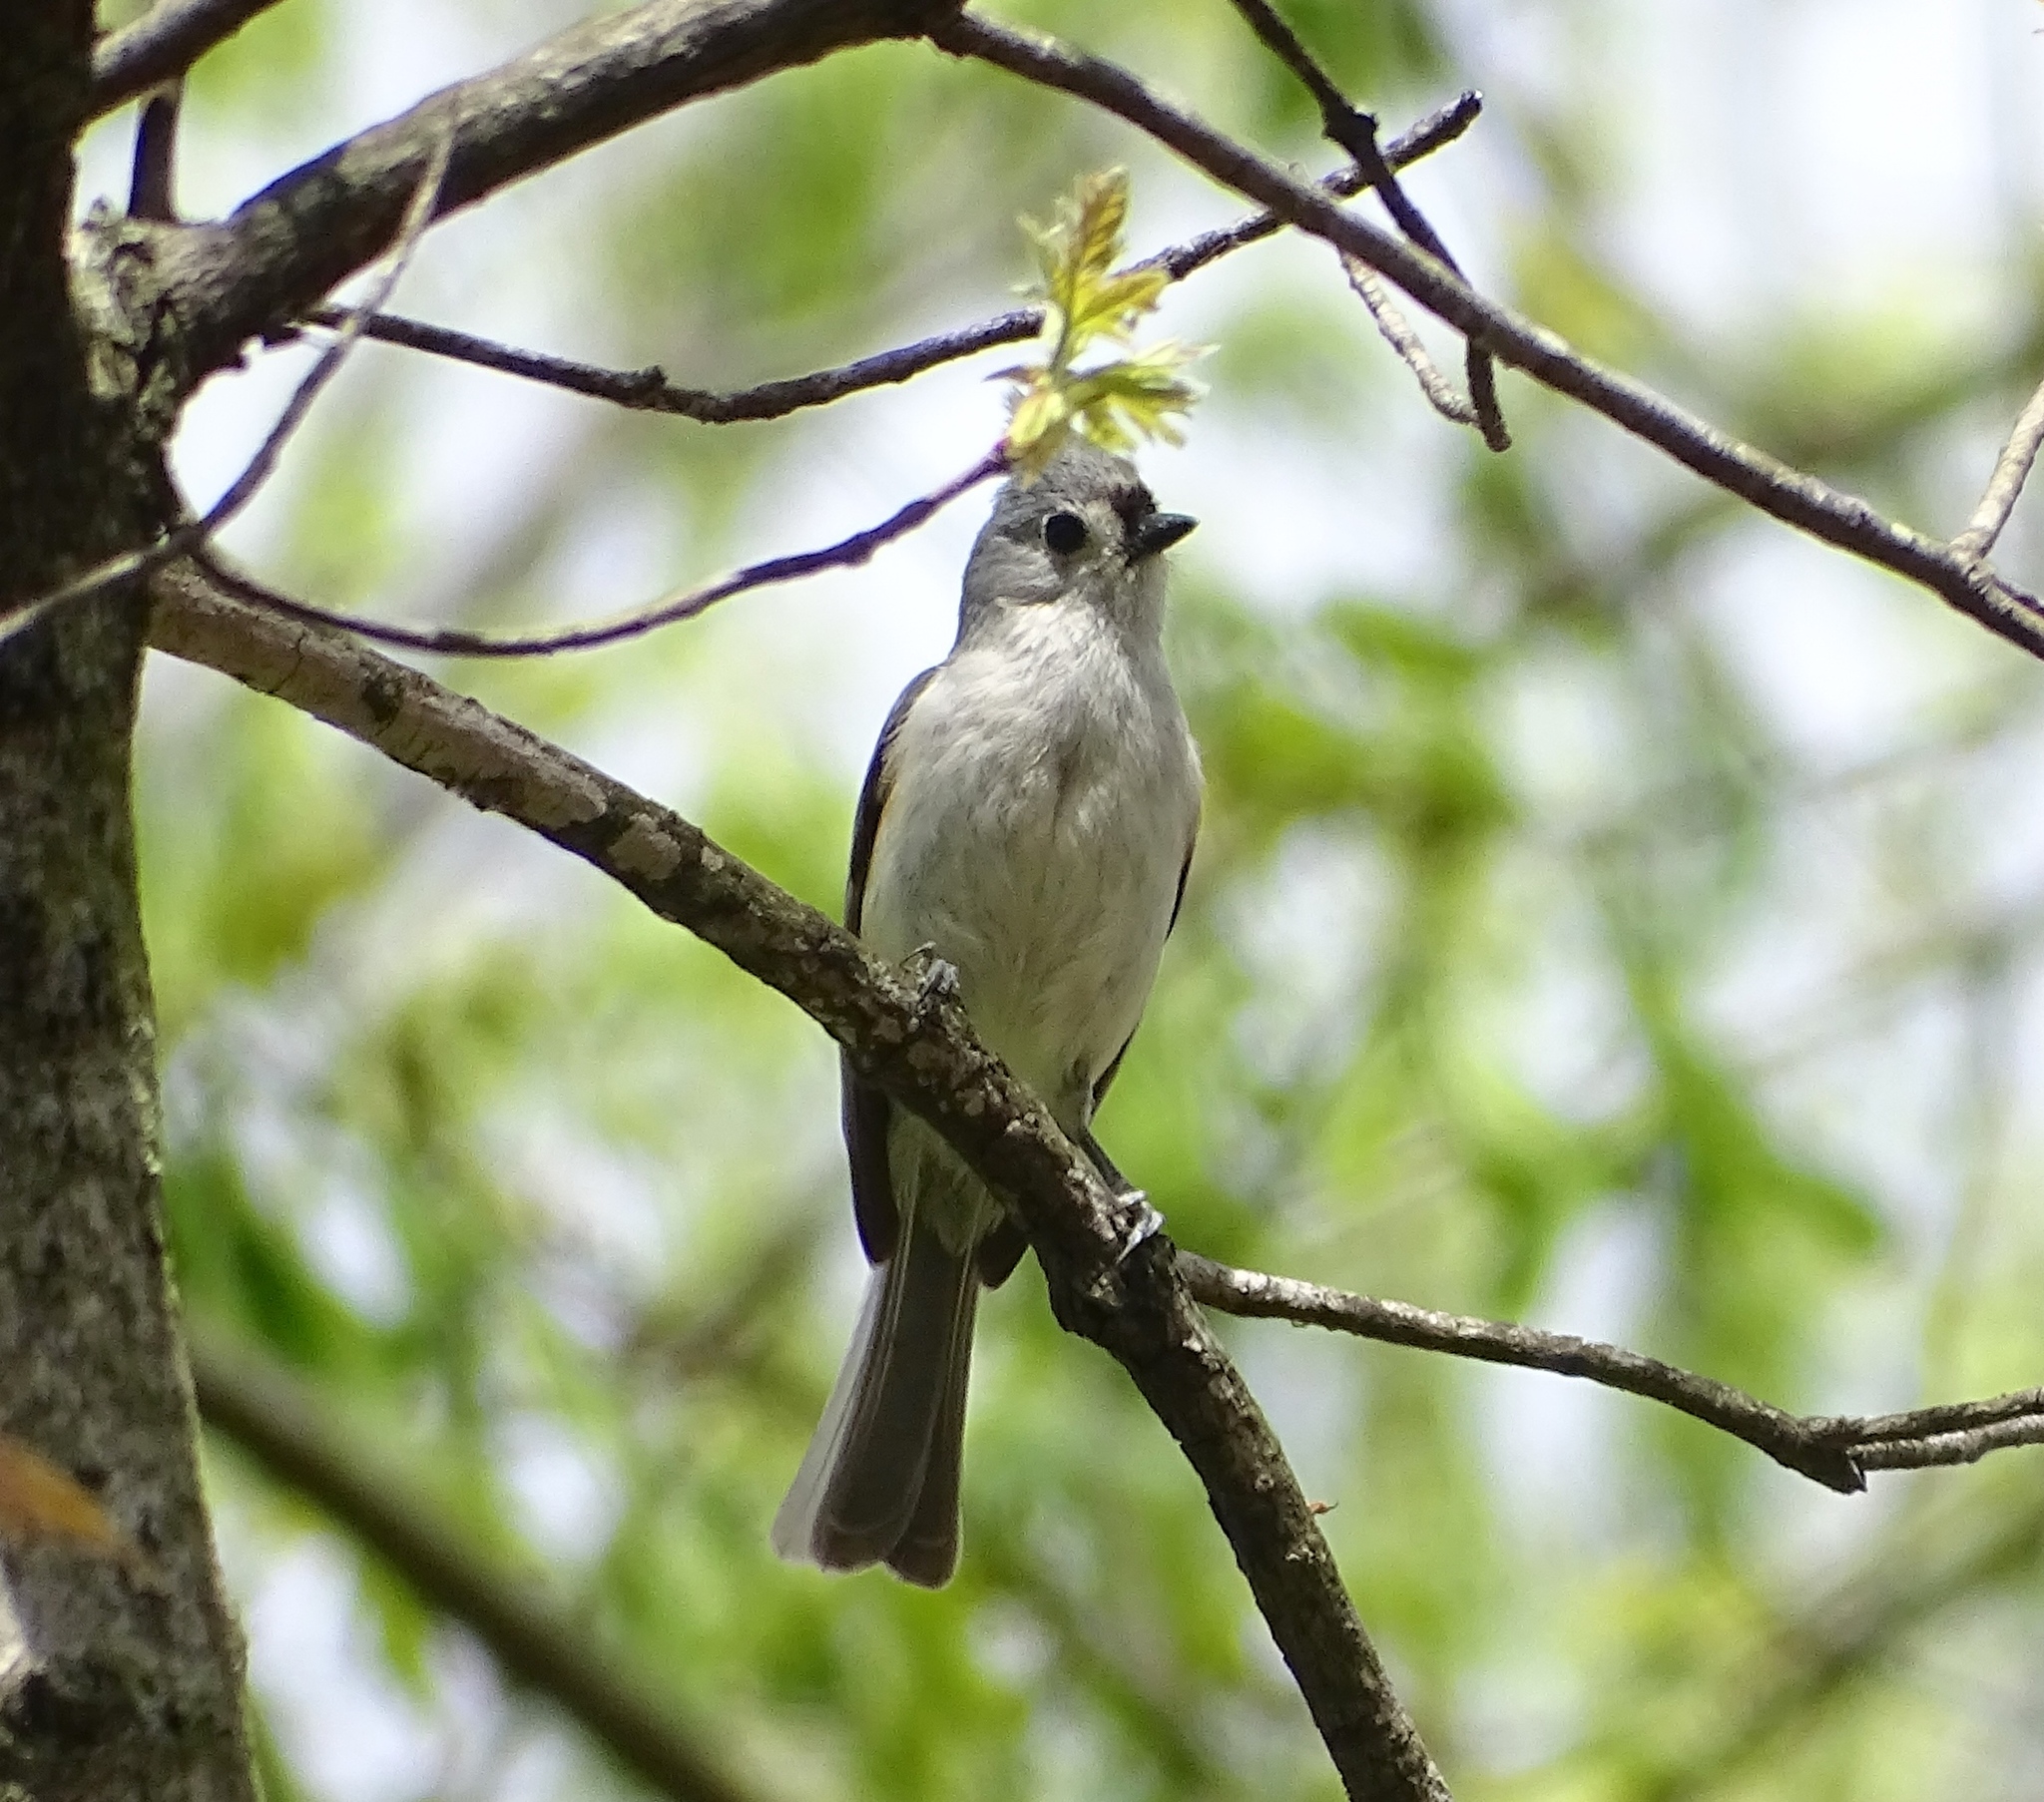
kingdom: Animalia
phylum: Chordata
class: Aves
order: Passeriformes
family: Paridae
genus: Baeolophus
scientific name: Baeolophus bicolor
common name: Tufted titmouse
